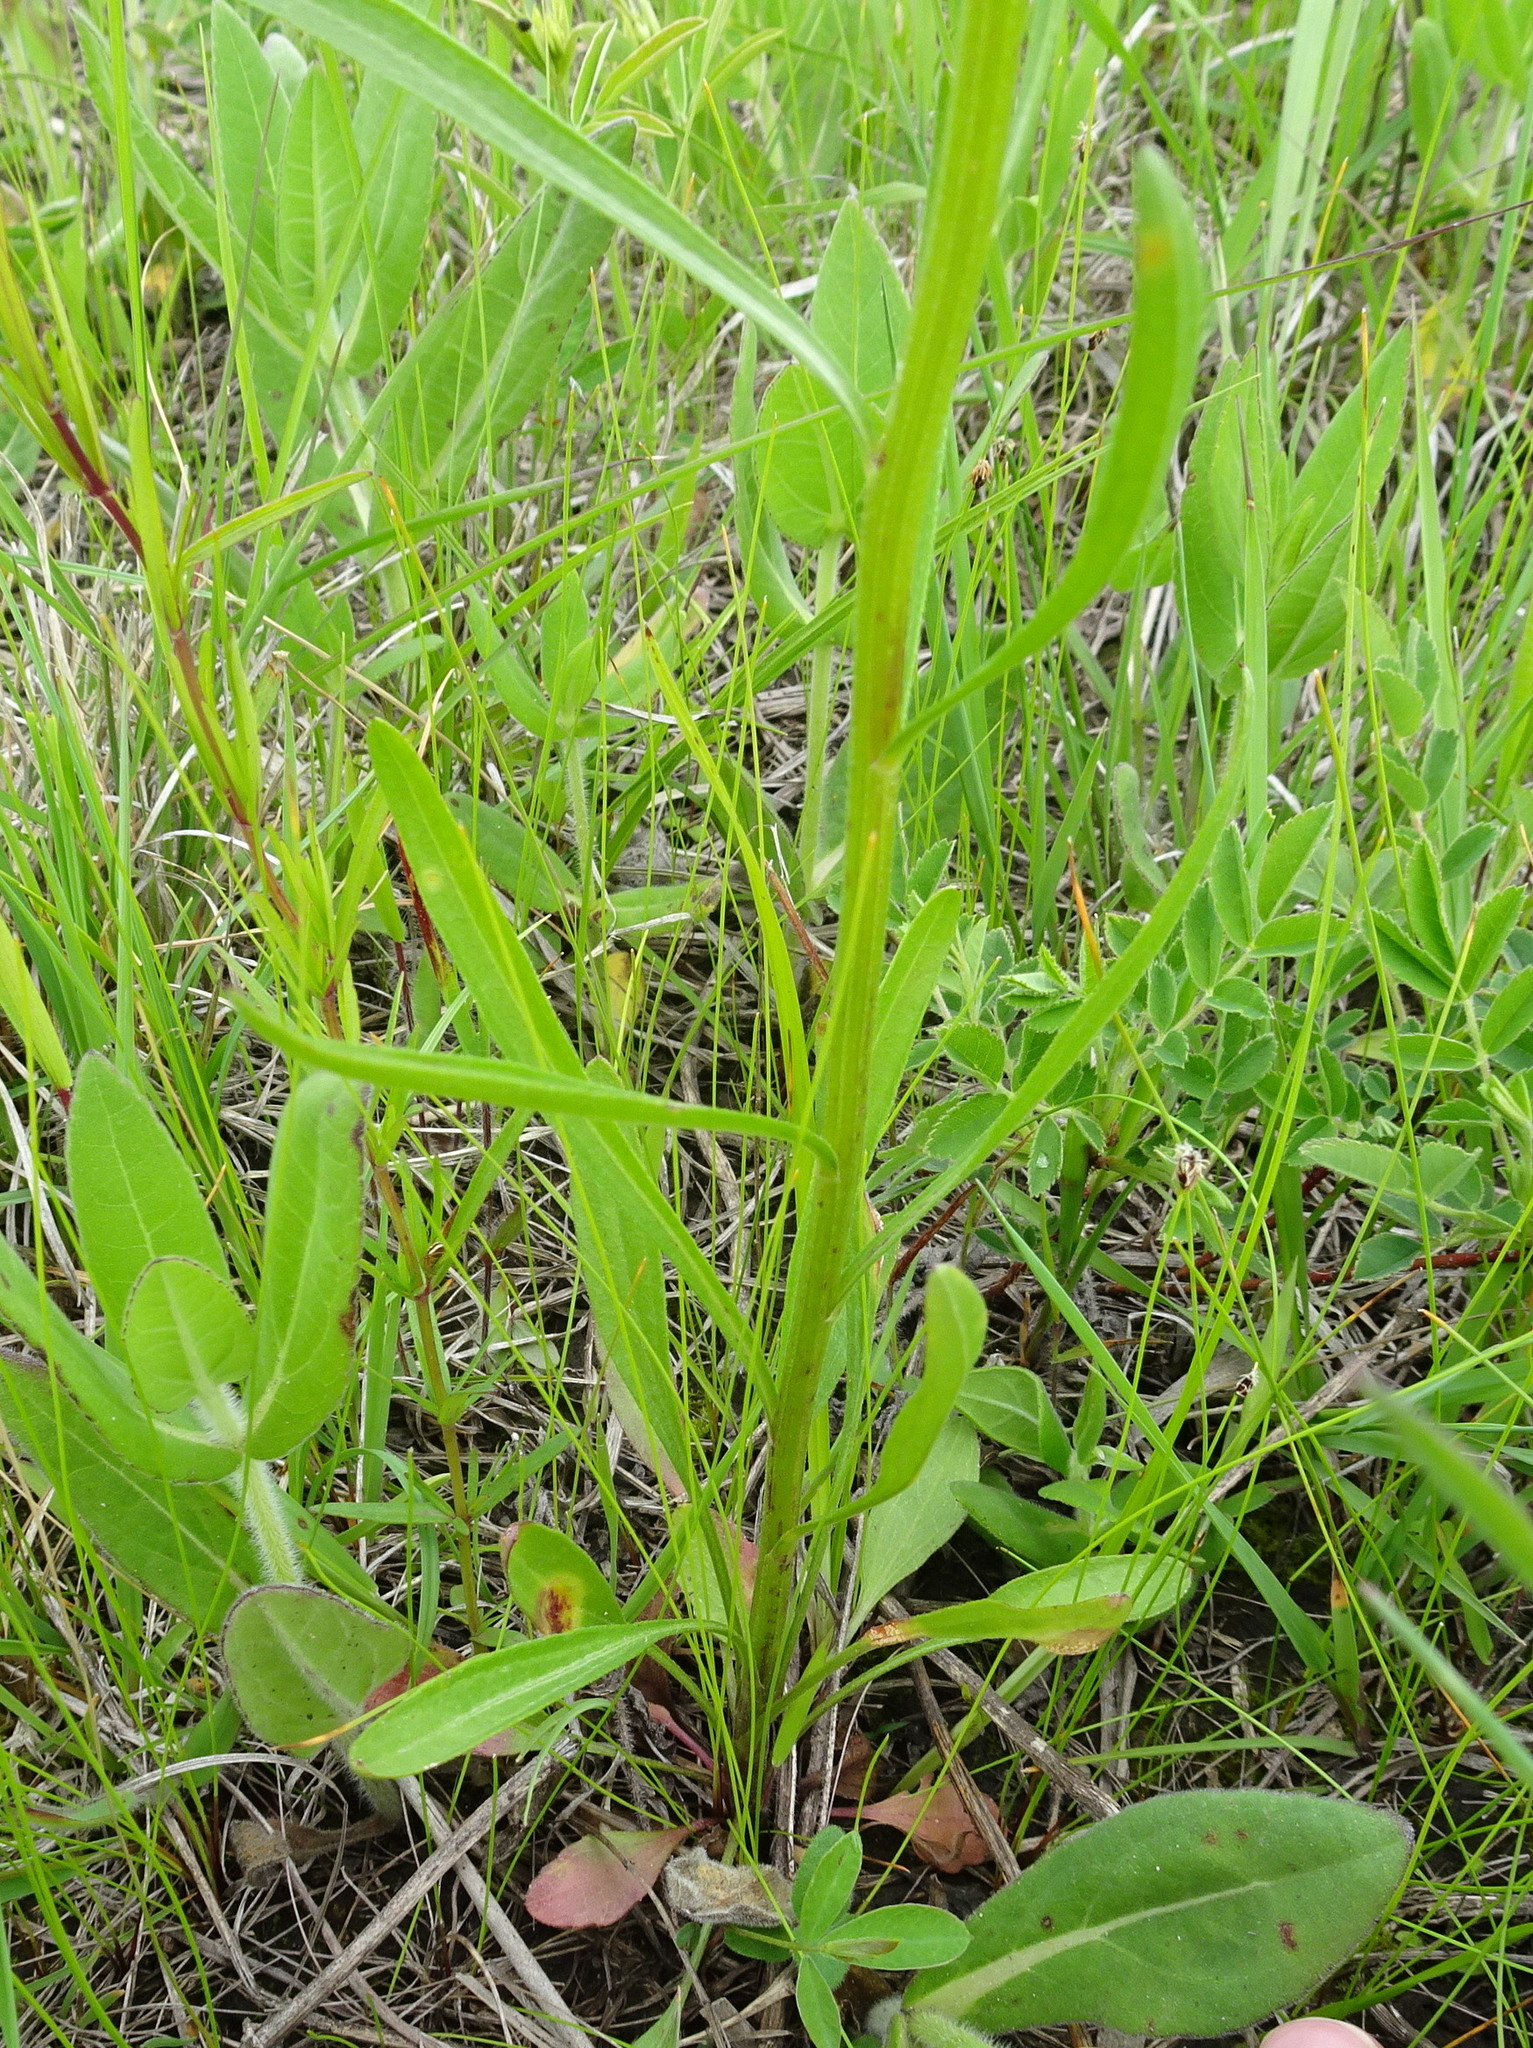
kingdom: Plantae
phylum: Tracheophyta
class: Magnoliopsida
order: Asterales
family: Asteraceae
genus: Erigeron
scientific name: Erigeron strigosus
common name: Common eastern fleabane
